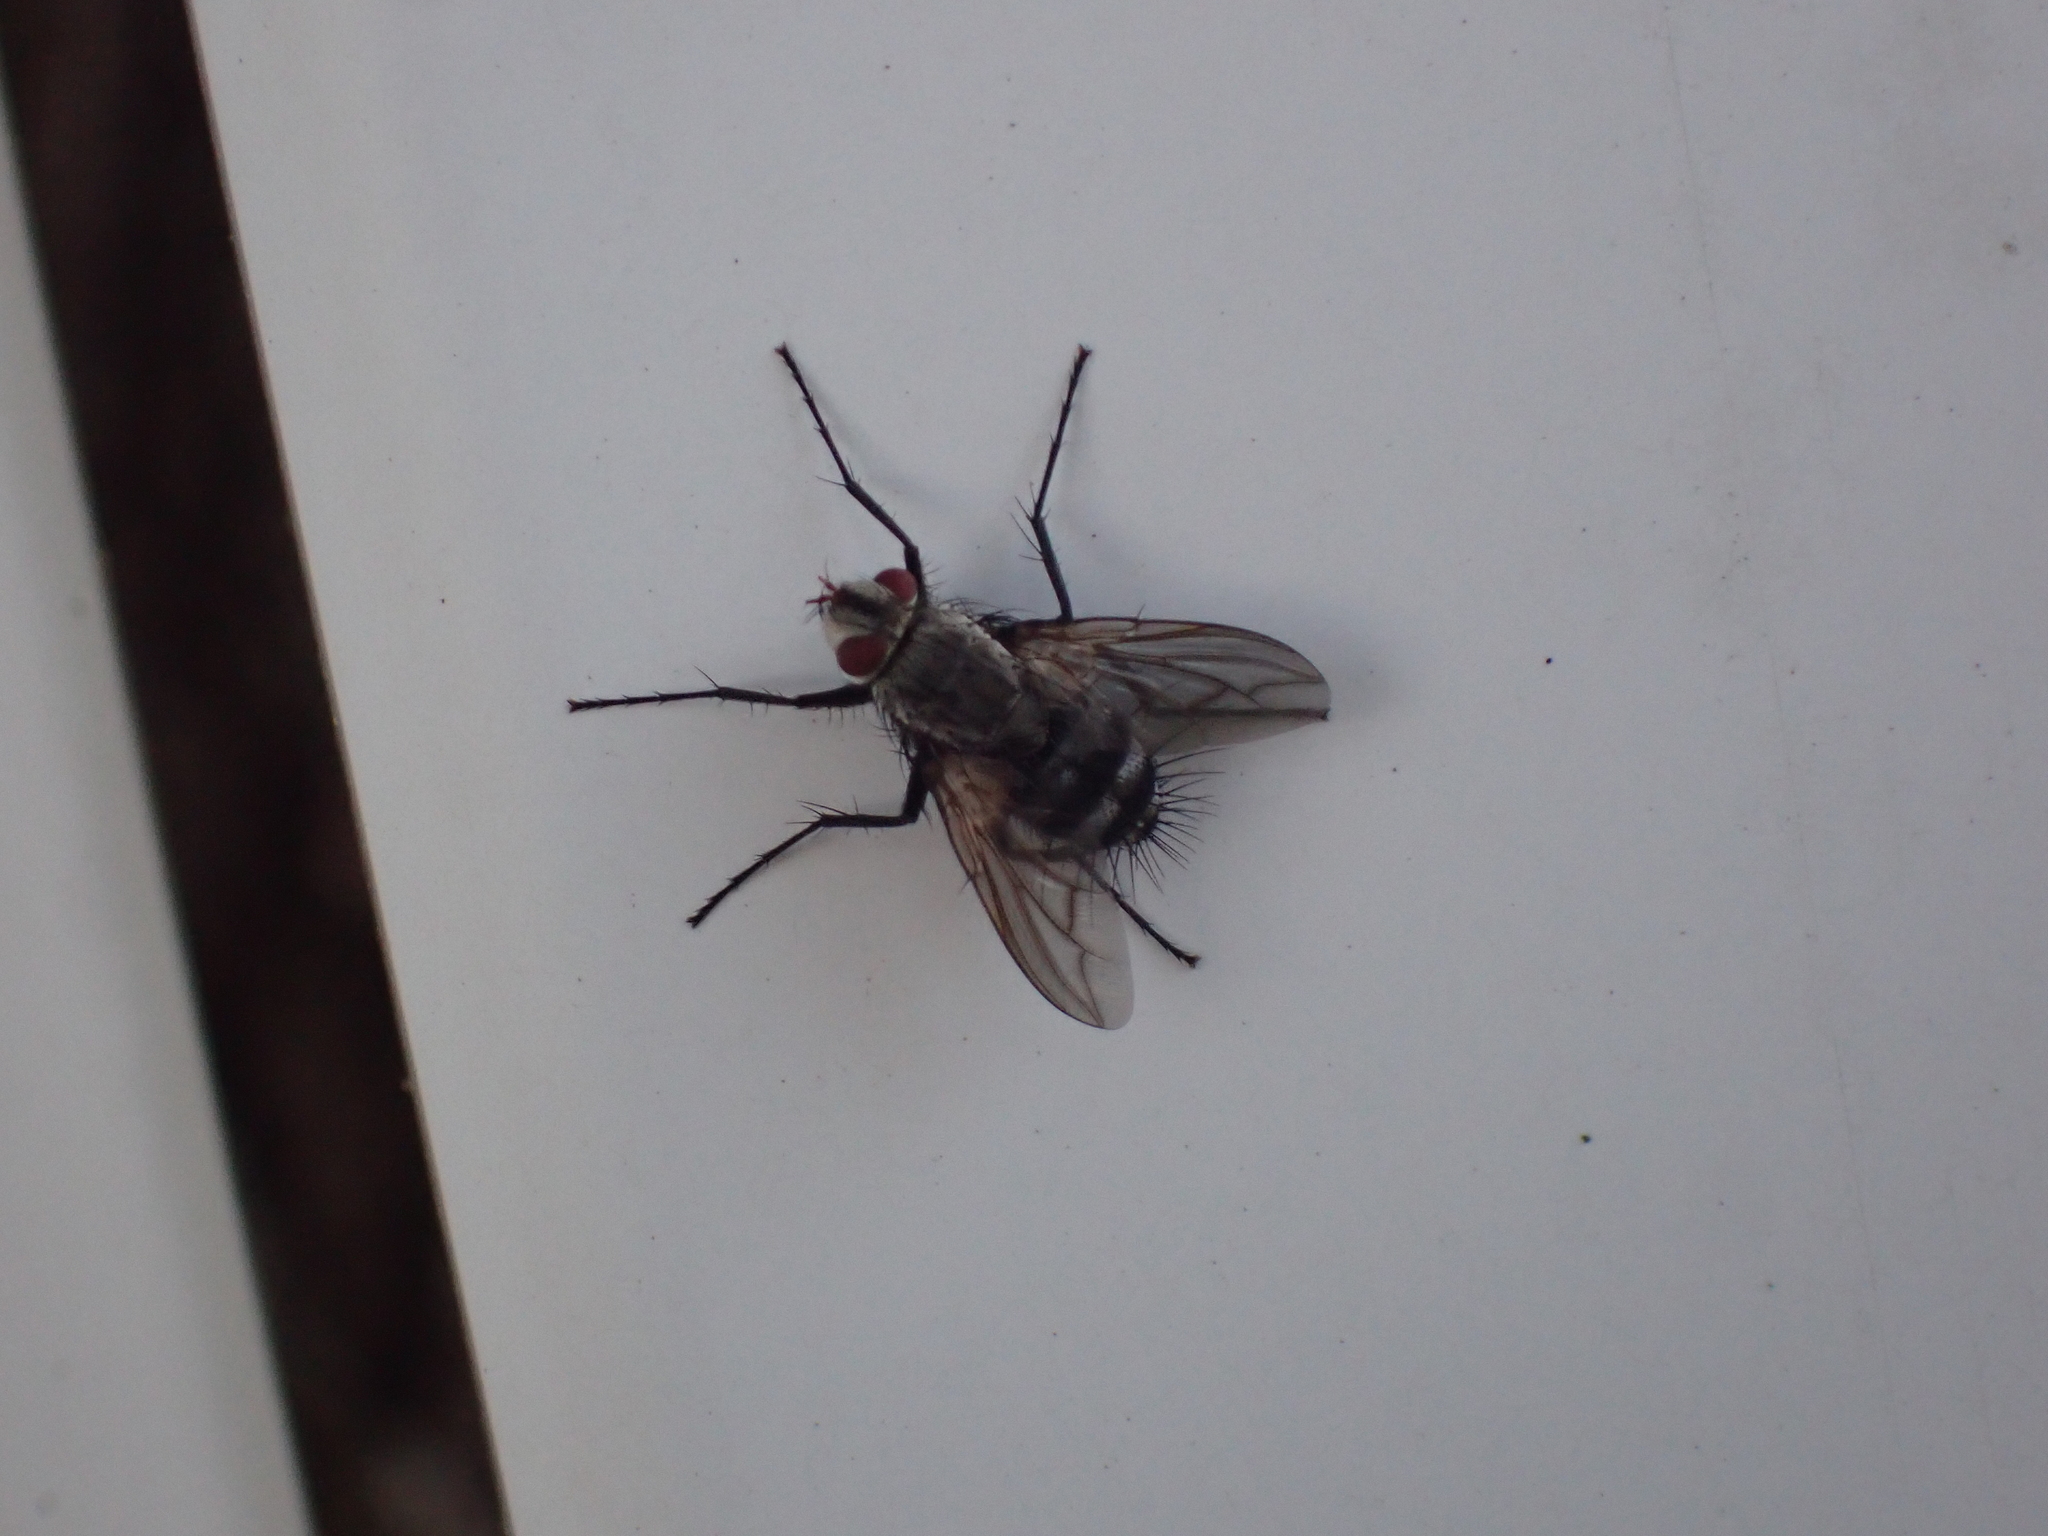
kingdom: Animalia
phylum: Arthropoda
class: Insecta
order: Diptera
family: Tachinidae
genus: Microphthalma
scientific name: Microphthalma disjuncta
